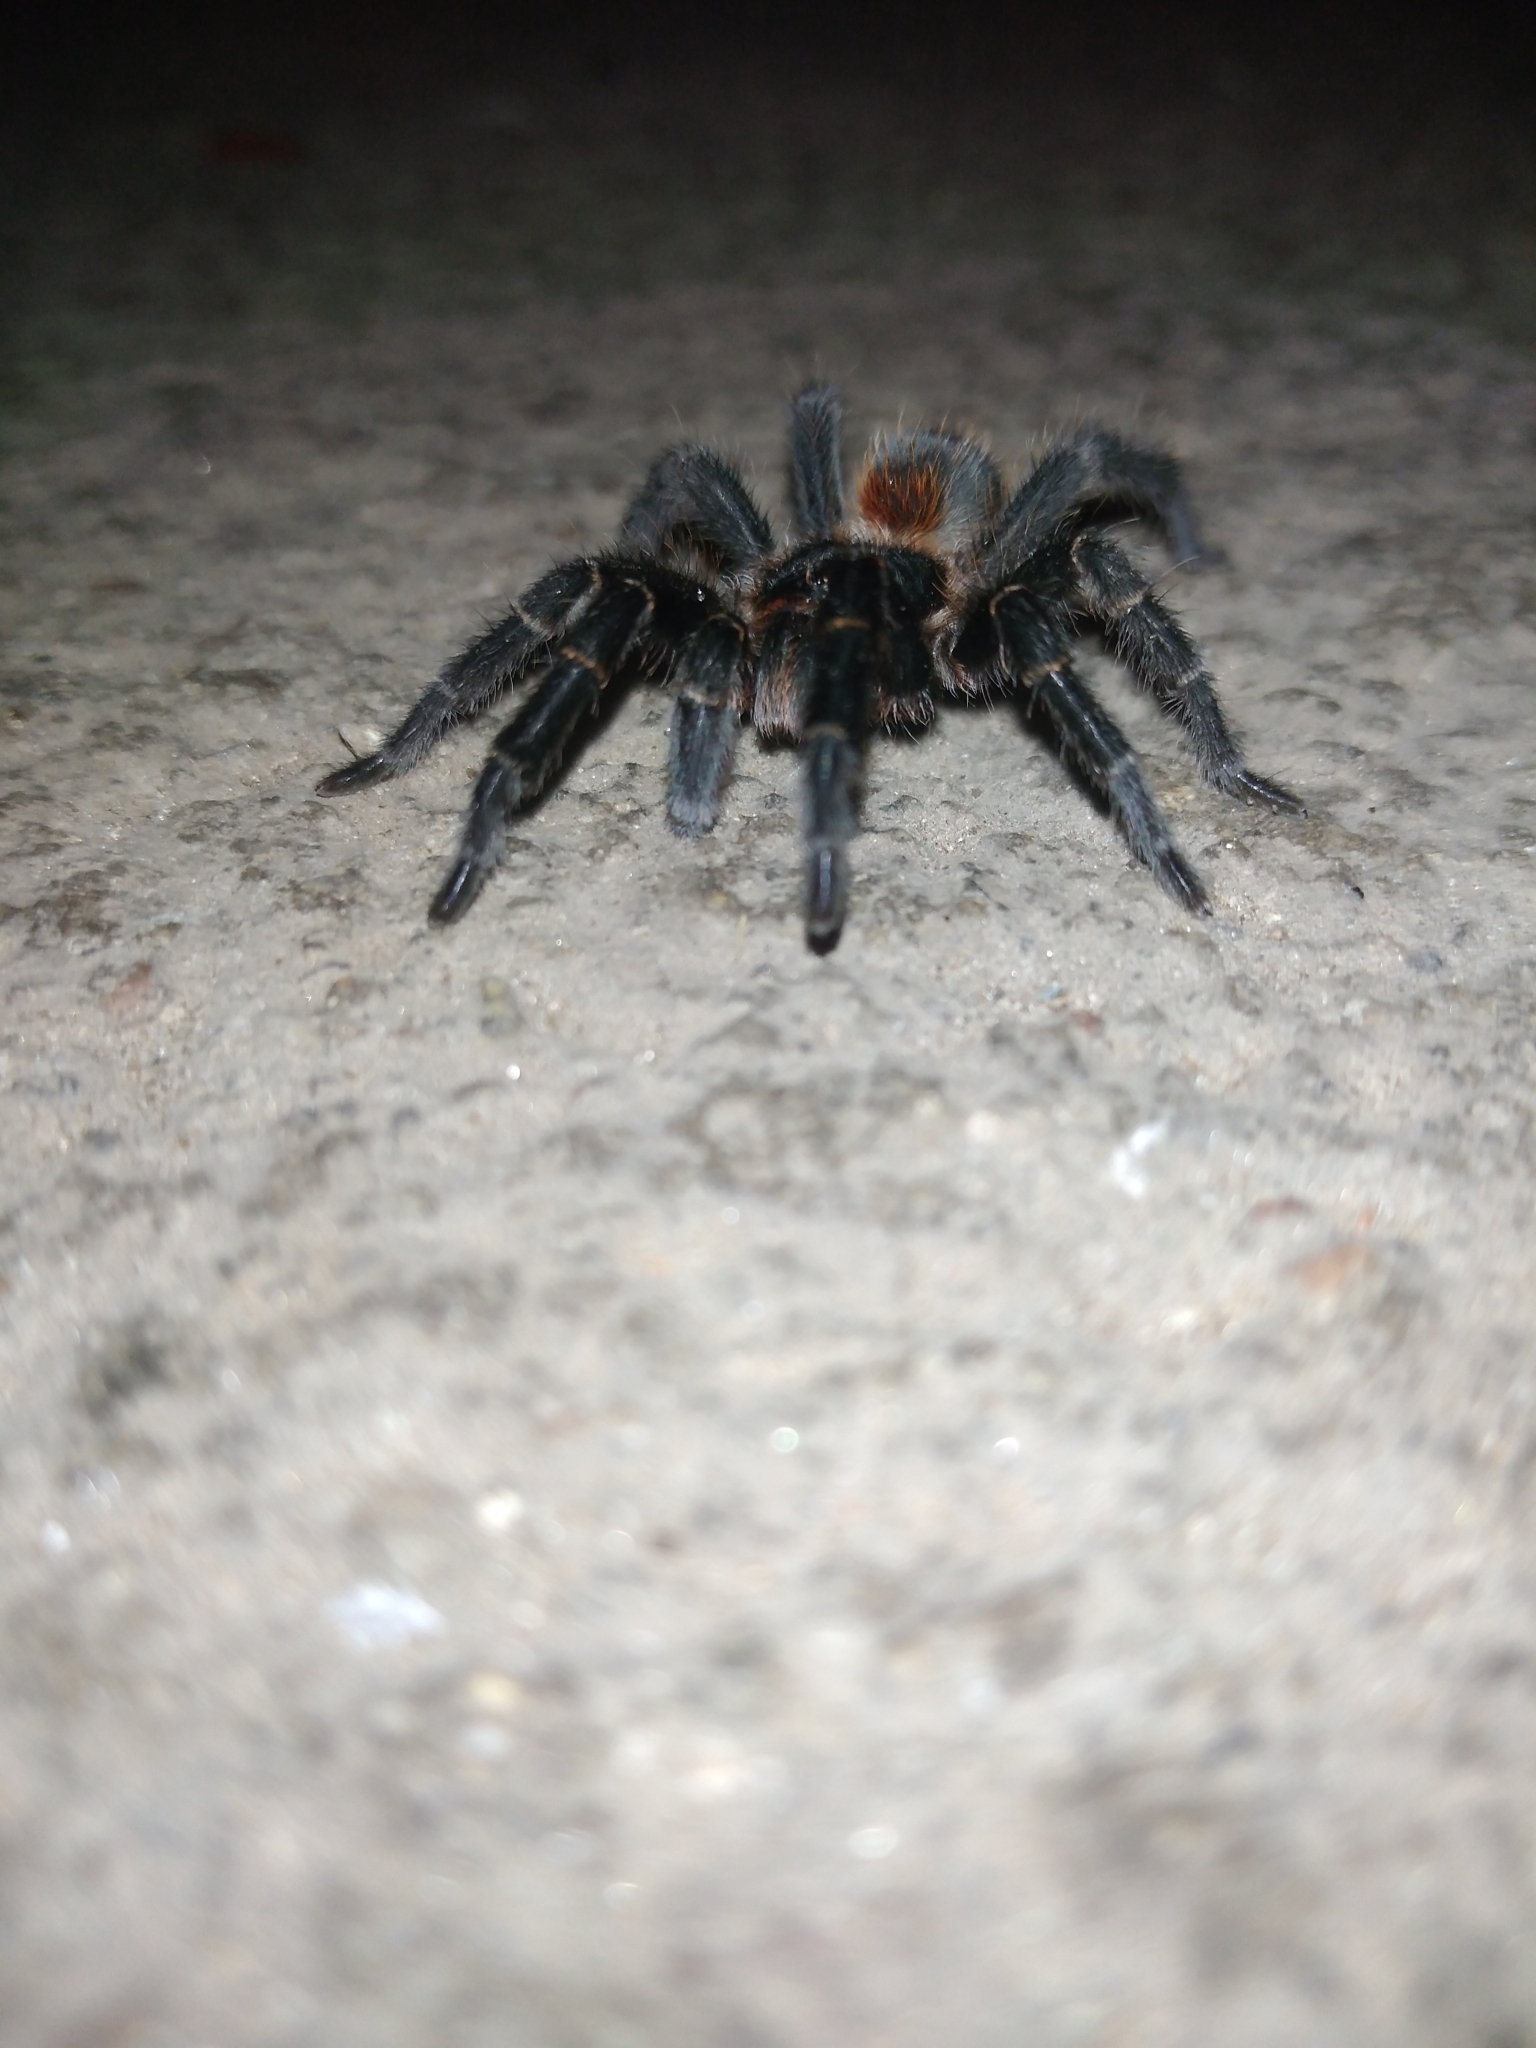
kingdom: Animalia
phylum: Arthropoda
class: Arachnida
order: Araneae
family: Theraphosidae
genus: Homoeomma
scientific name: Homoeomma uruguayense
